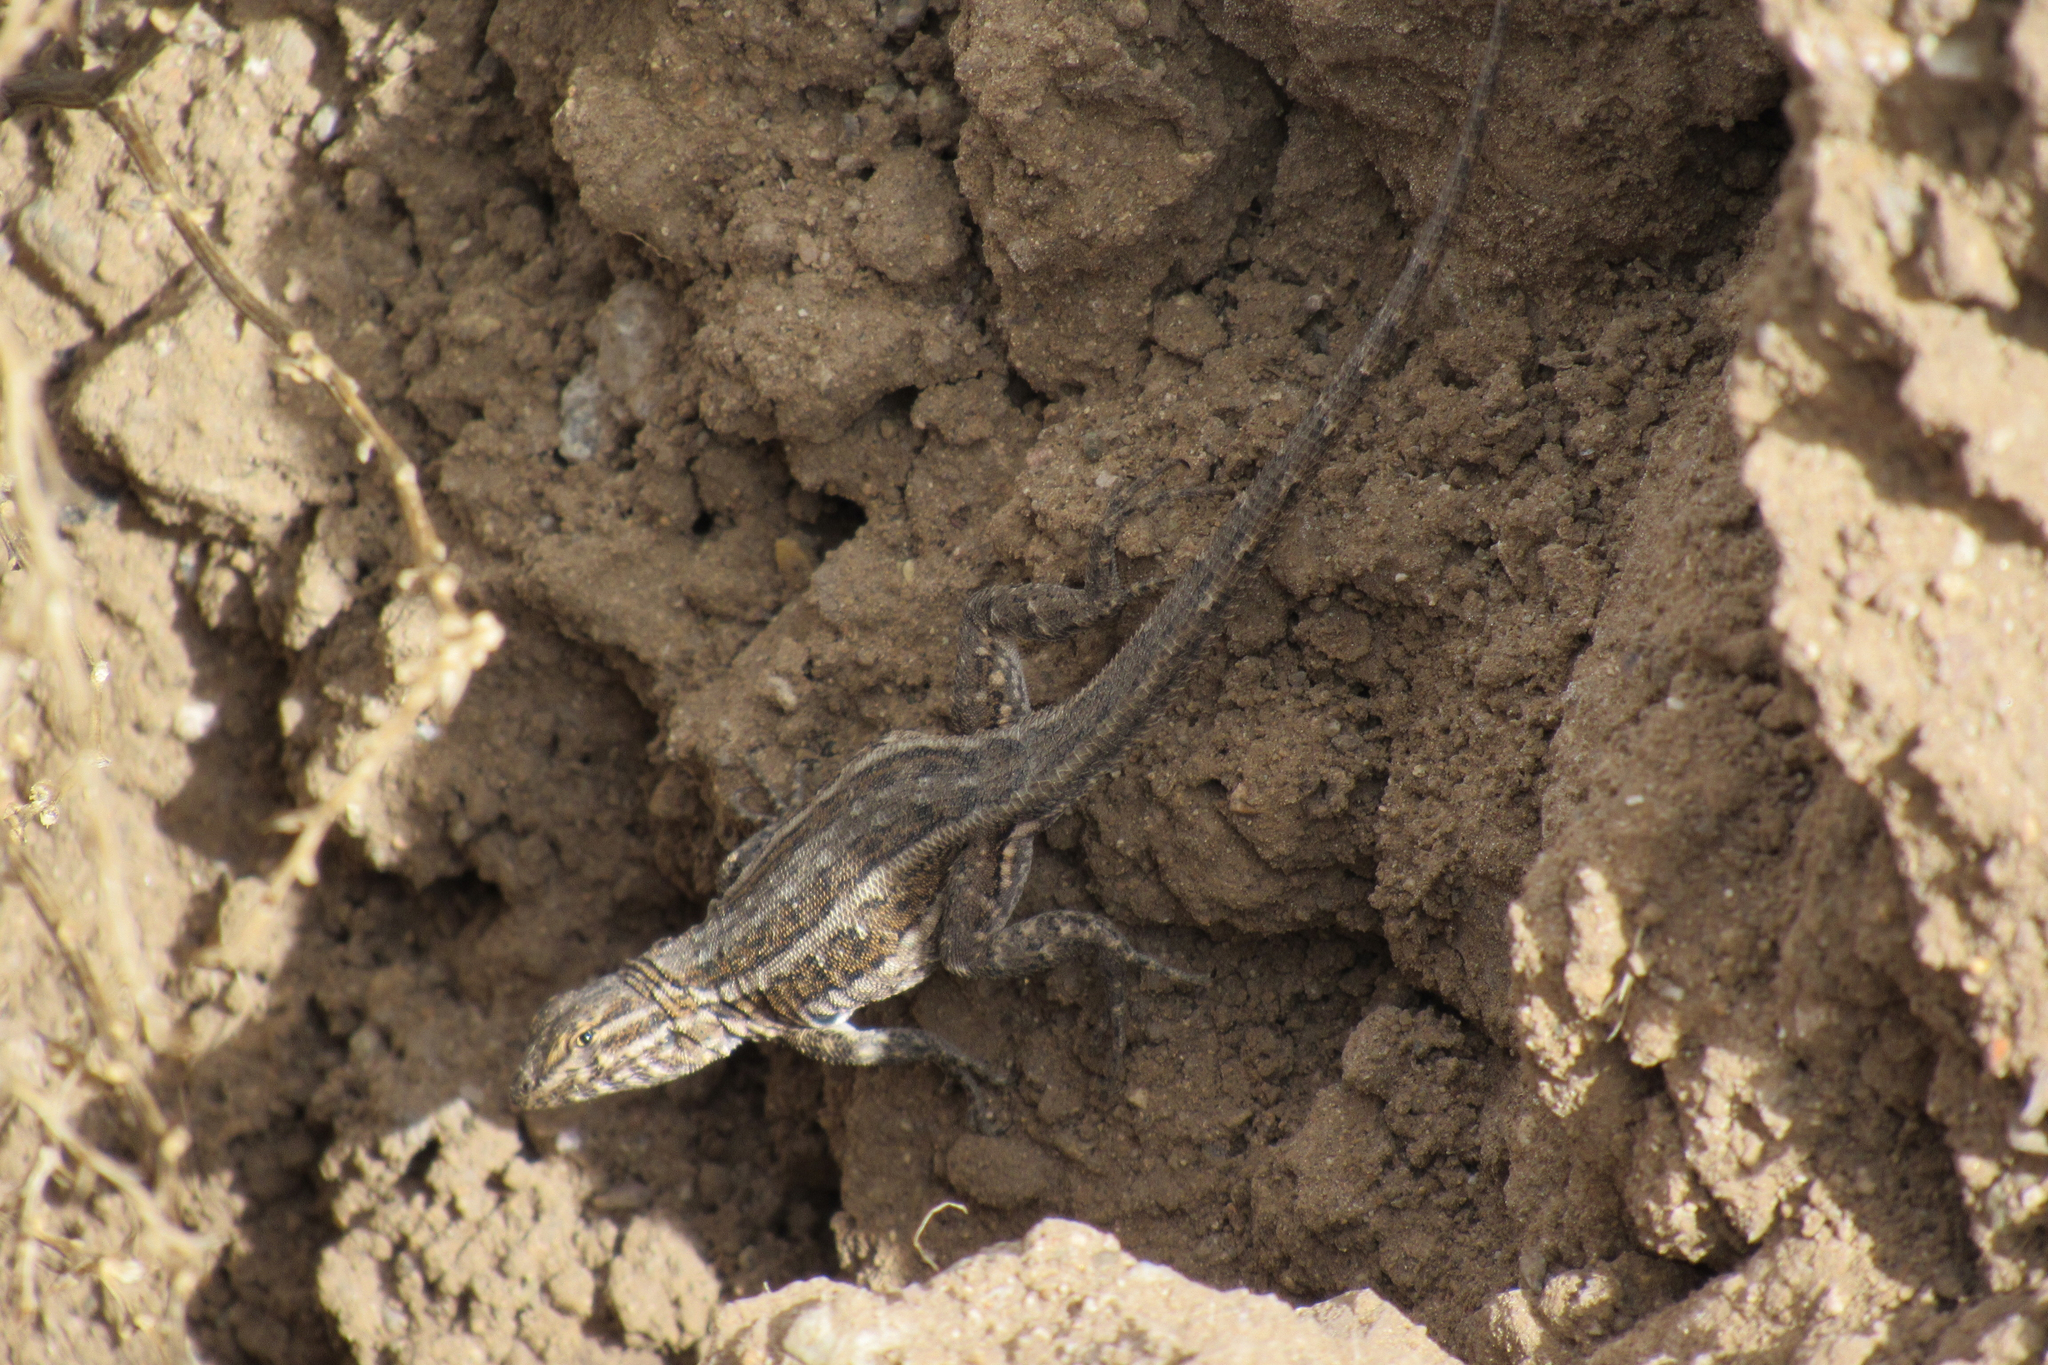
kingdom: Animalia
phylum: Chordata
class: Squamata
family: Phrynosomatidae
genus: Uta
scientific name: Uta stansburiana
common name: Side-blotched lizard
